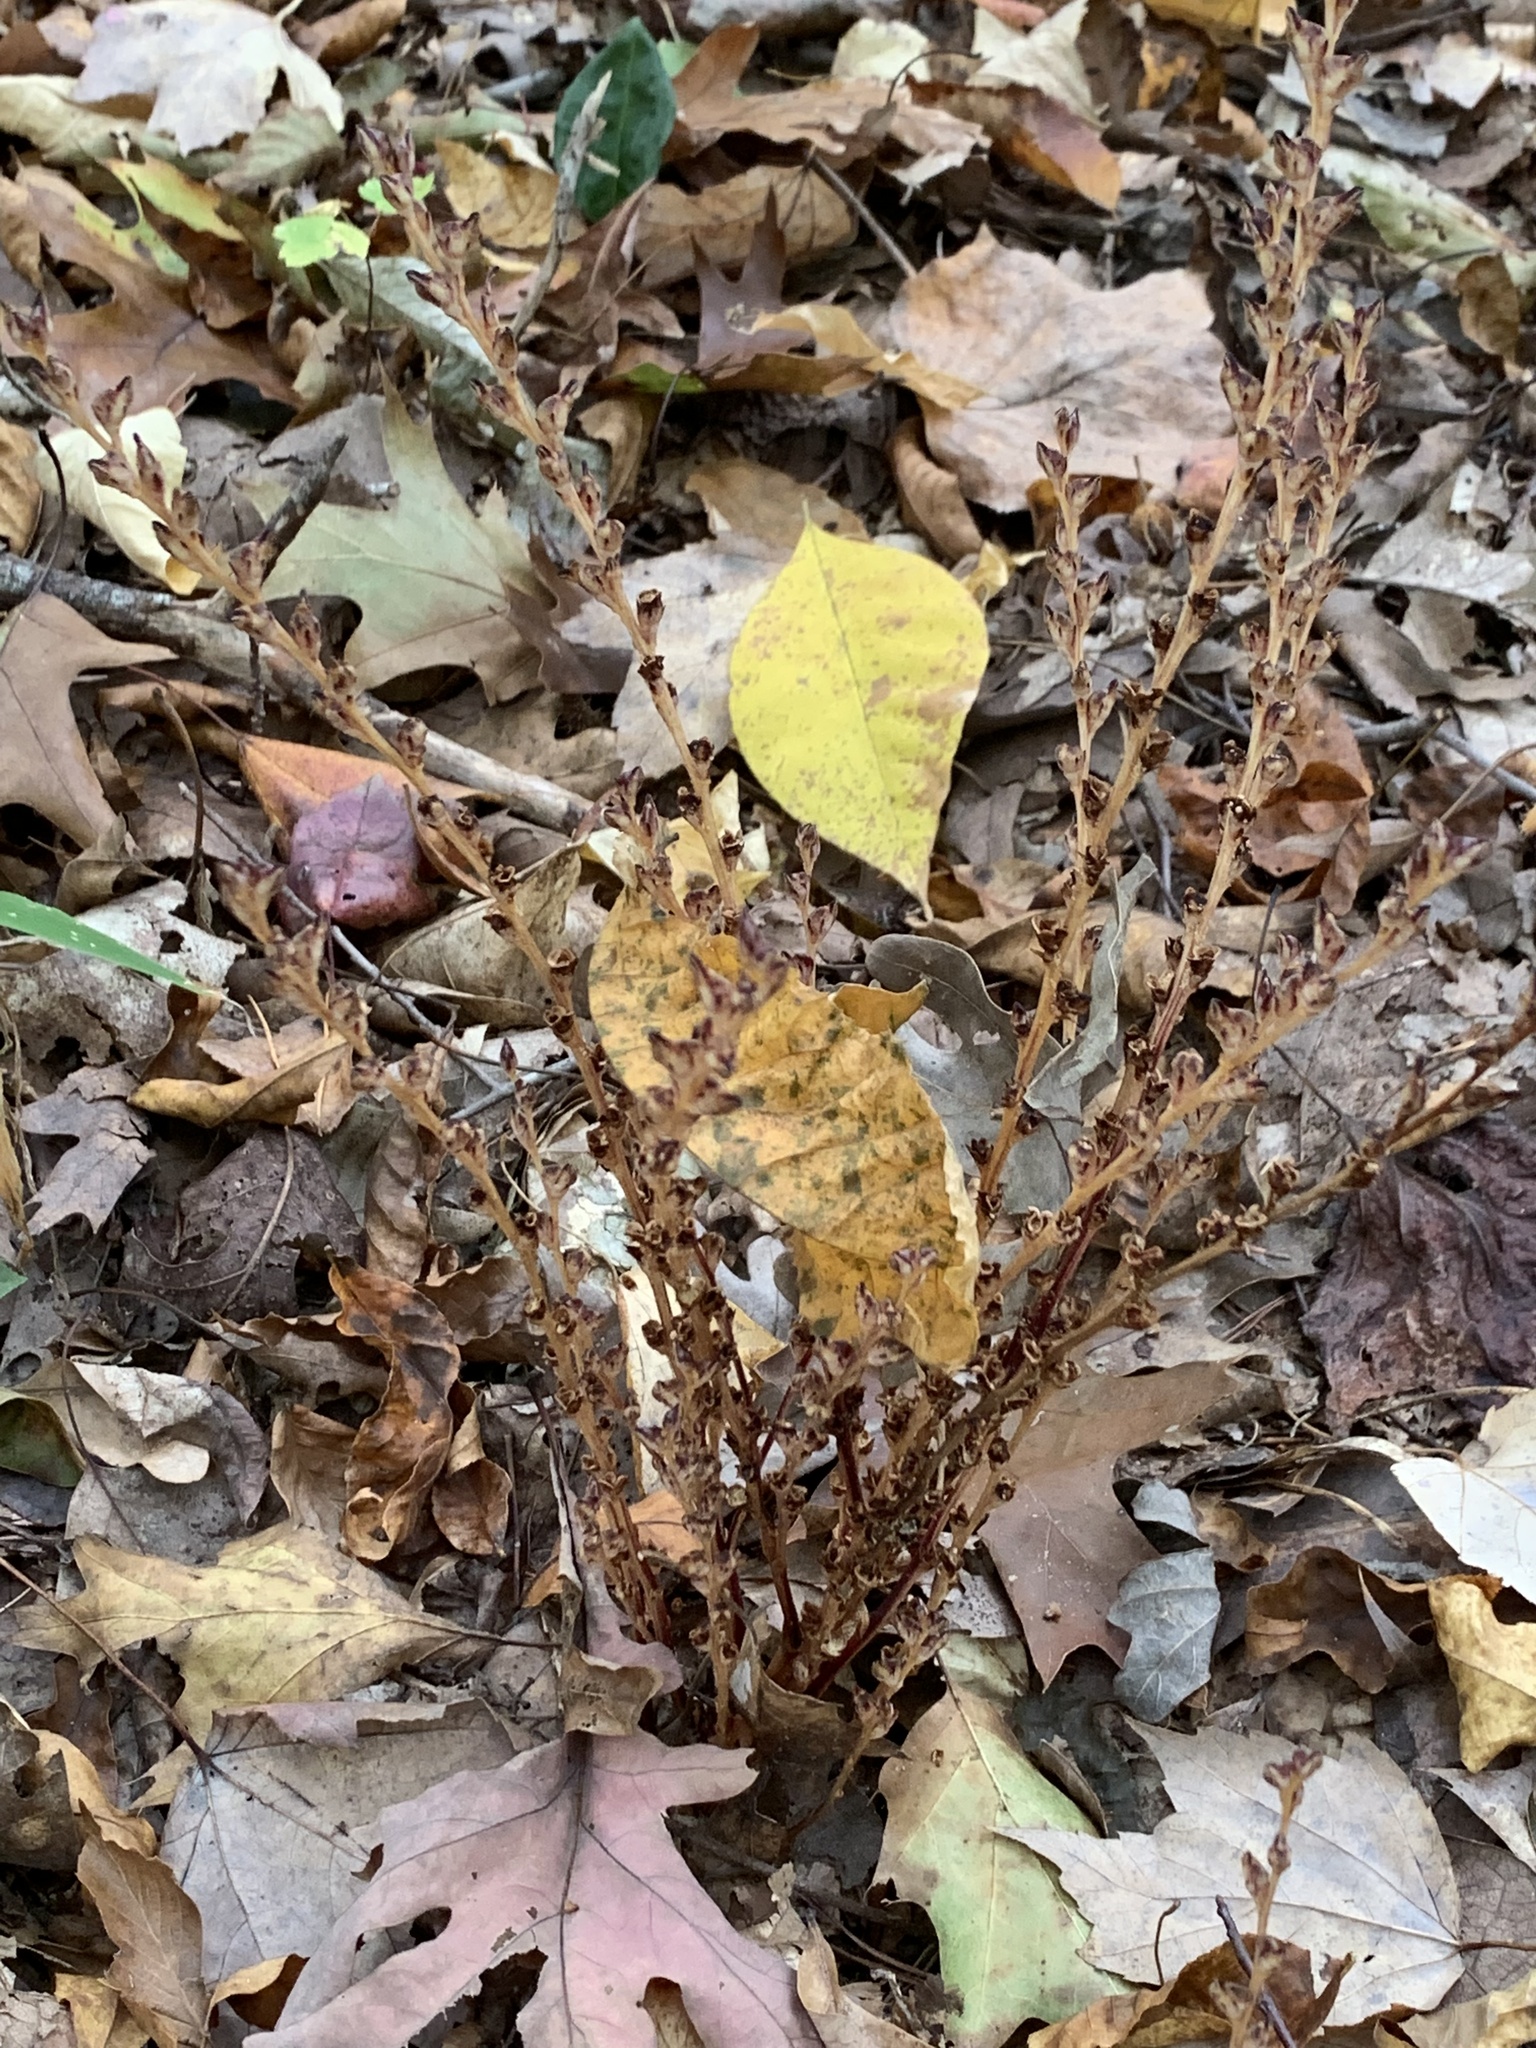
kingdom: Plantae
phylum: Tracheophyta
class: Magnoliopsida
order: Lamiales
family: Orobanchaceae
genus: Epifagus
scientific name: Epifagus virginiana
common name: Beechdrops
